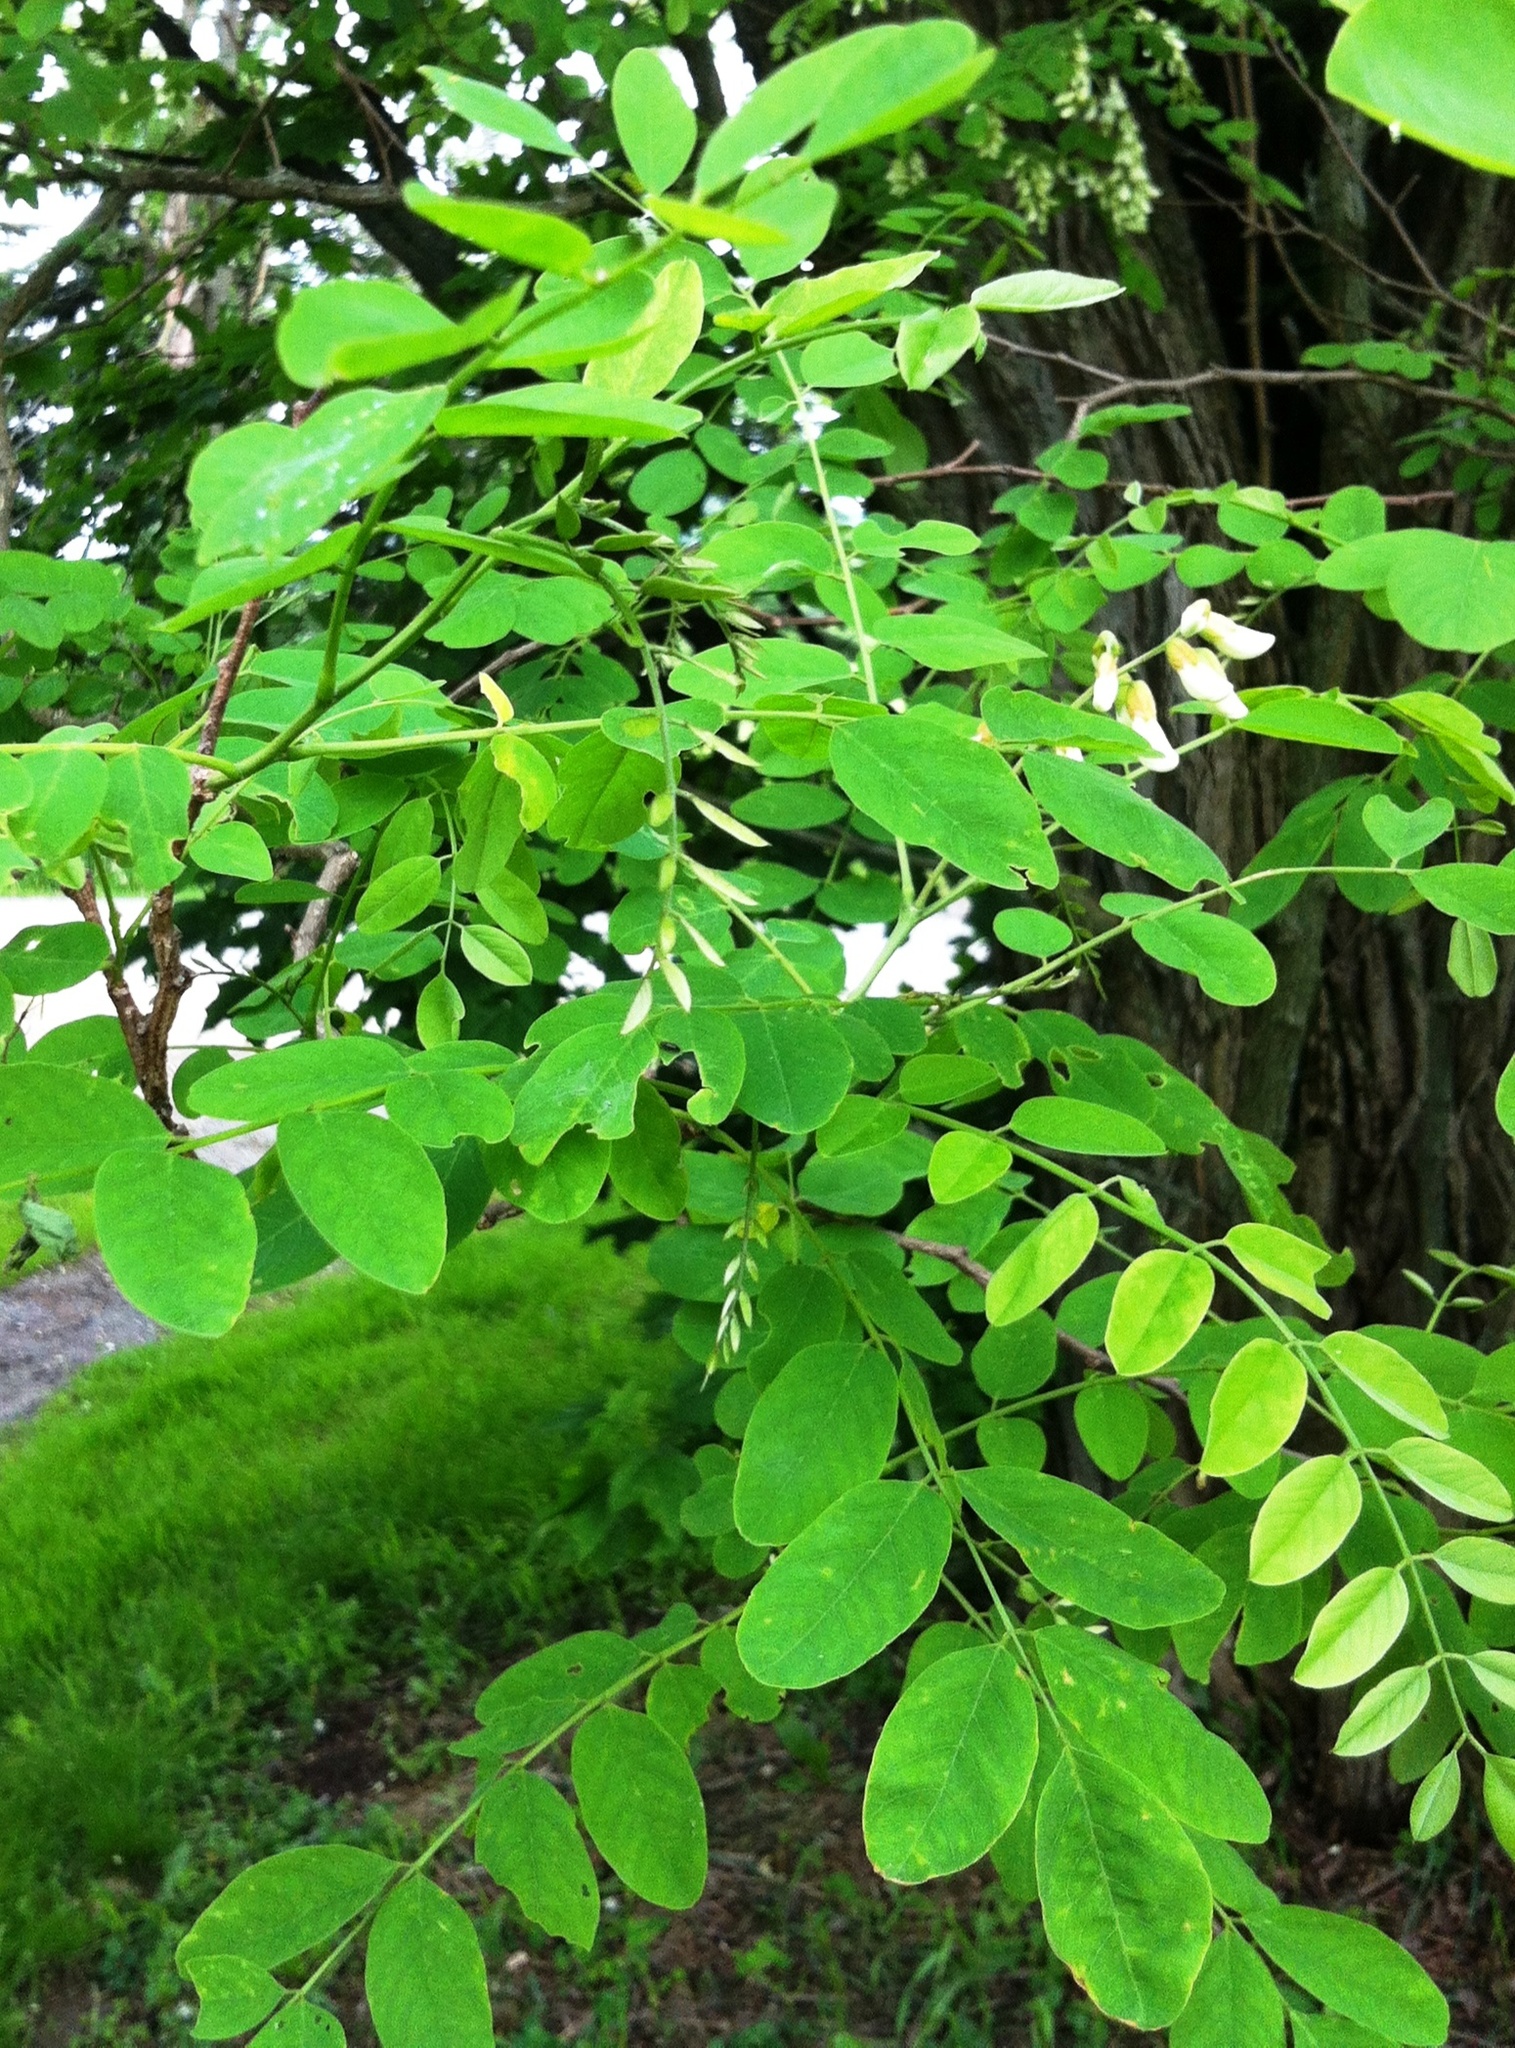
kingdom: Plantae
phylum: Tracheophyta
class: Magnoliopsida
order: Fabales
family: Fabaceae
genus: Robinia
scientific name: Robinia pseudoacacia
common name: Black locust
